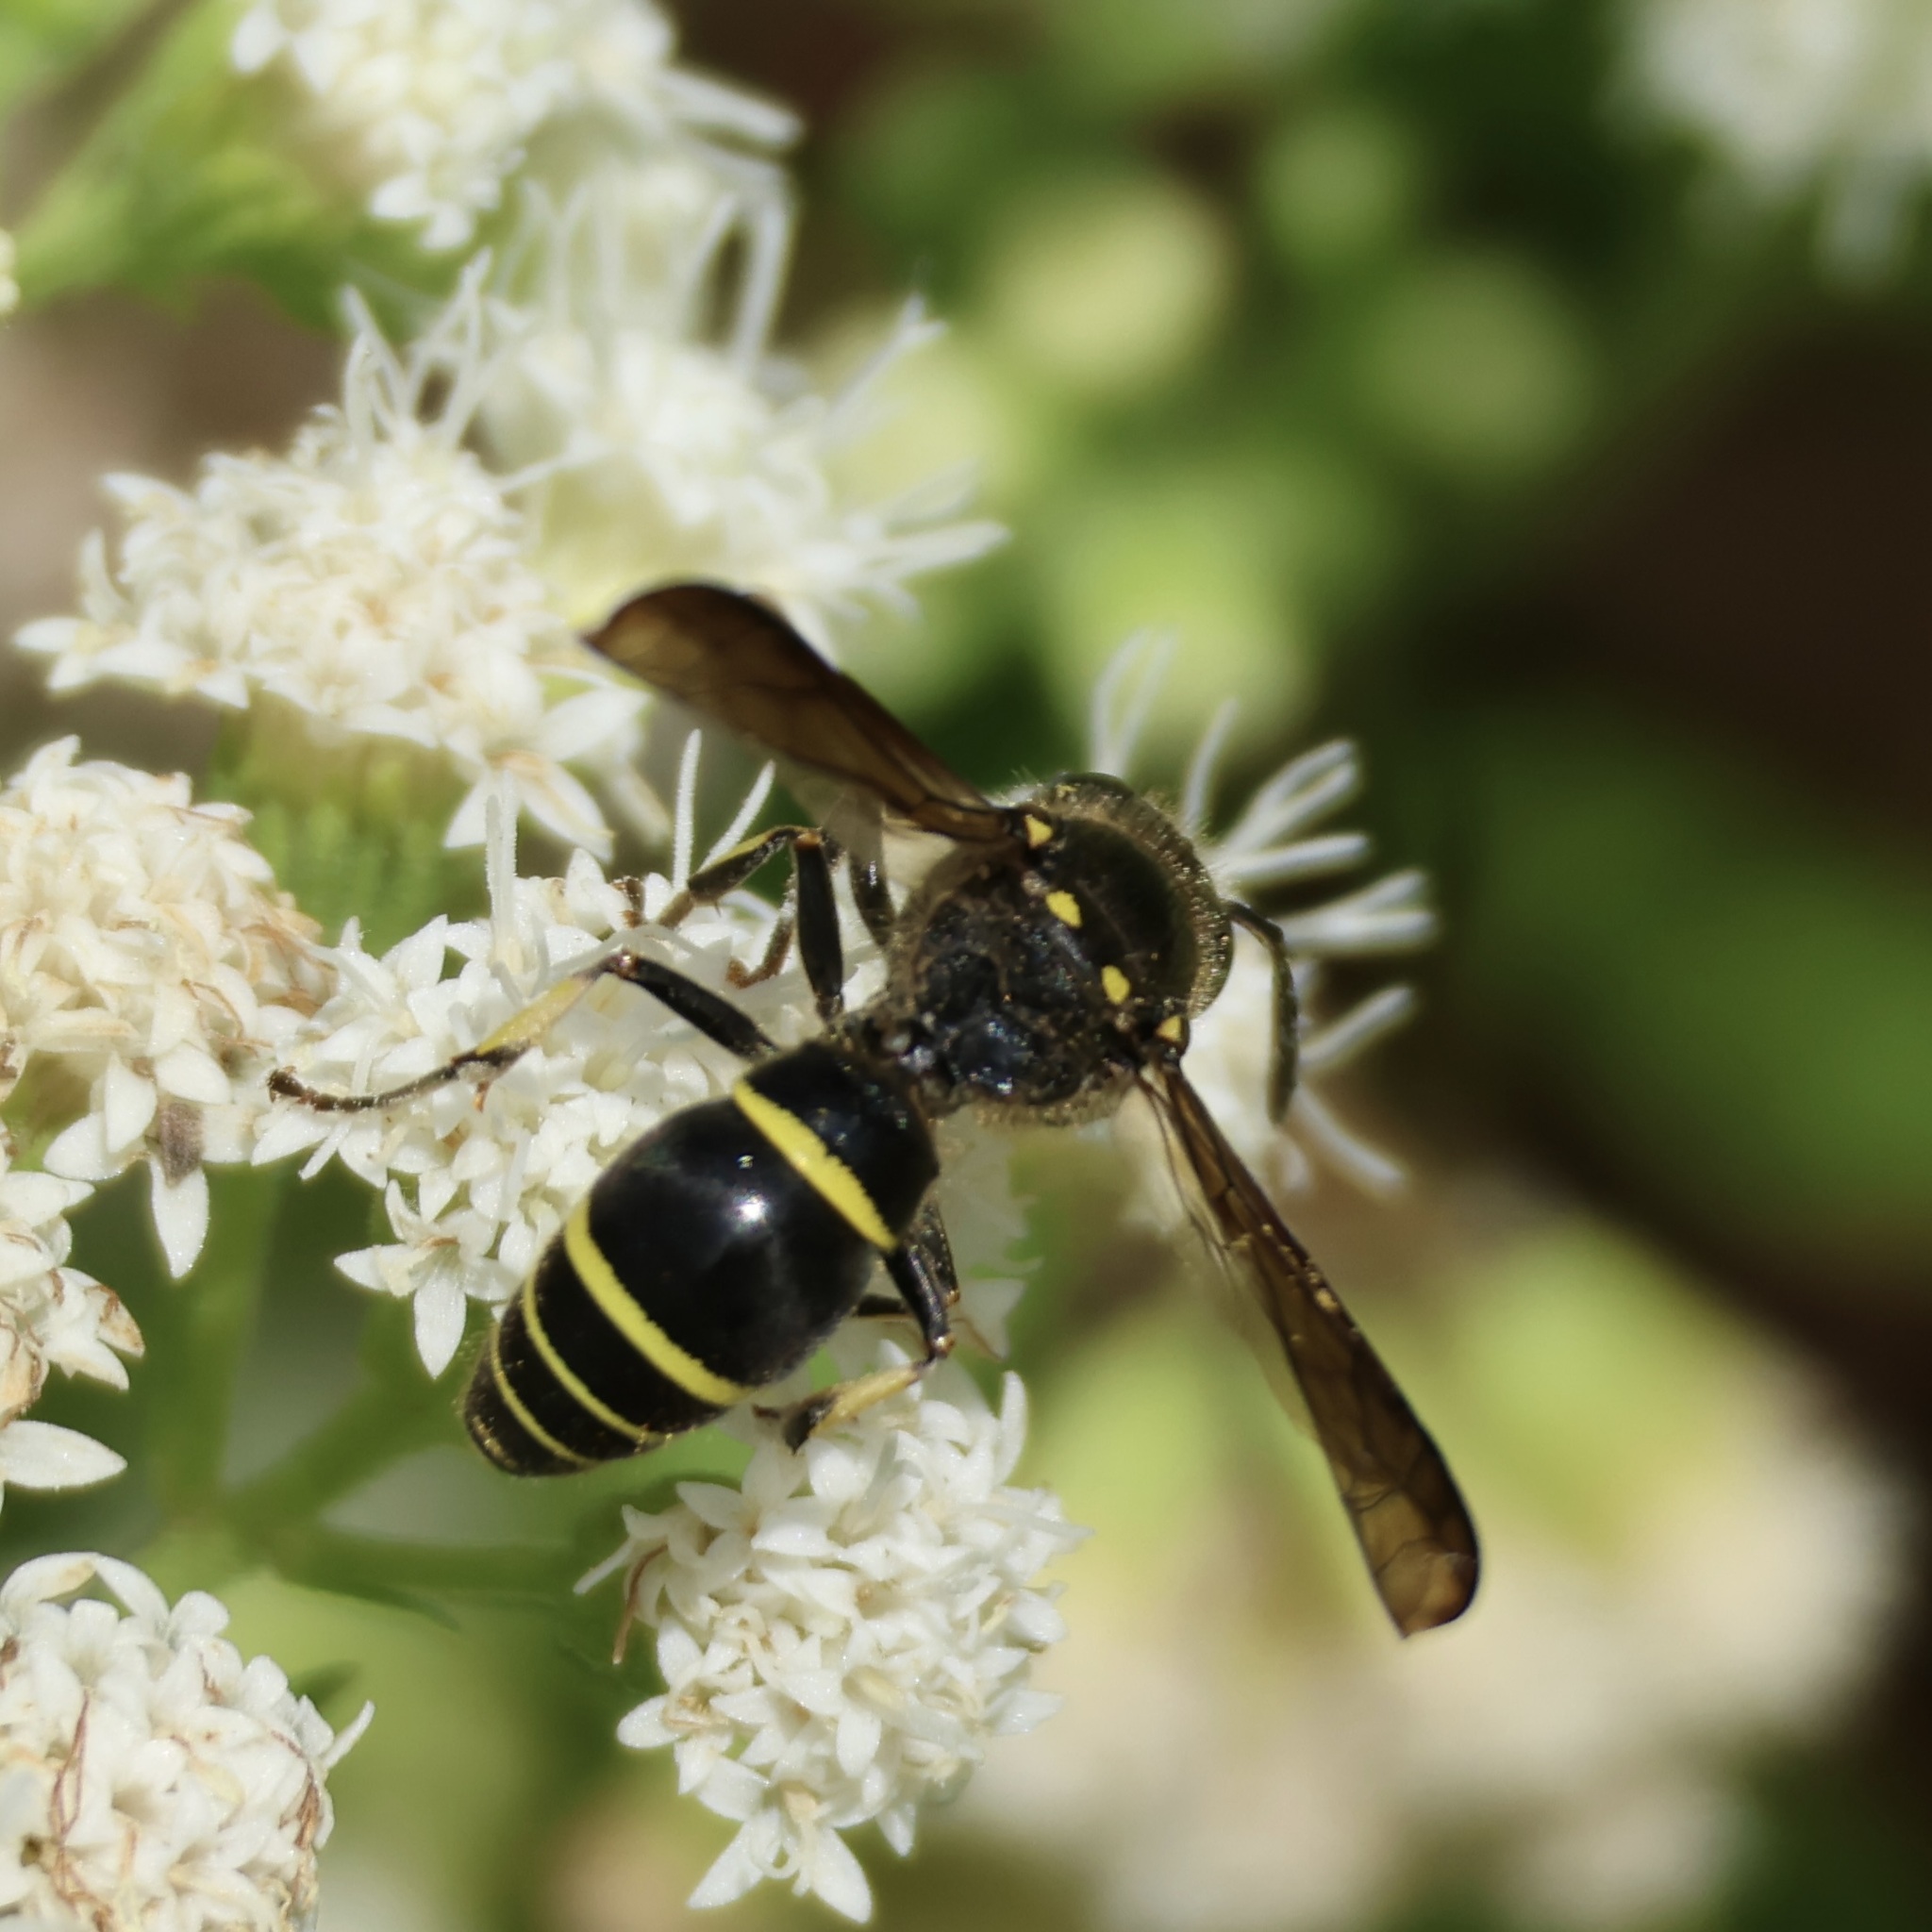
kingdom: Animalia
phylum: Arthropoda
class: Insecta
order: Hymenoptera
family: Vespidae
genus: Ancistrocerus
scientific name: Ancistrocerus
